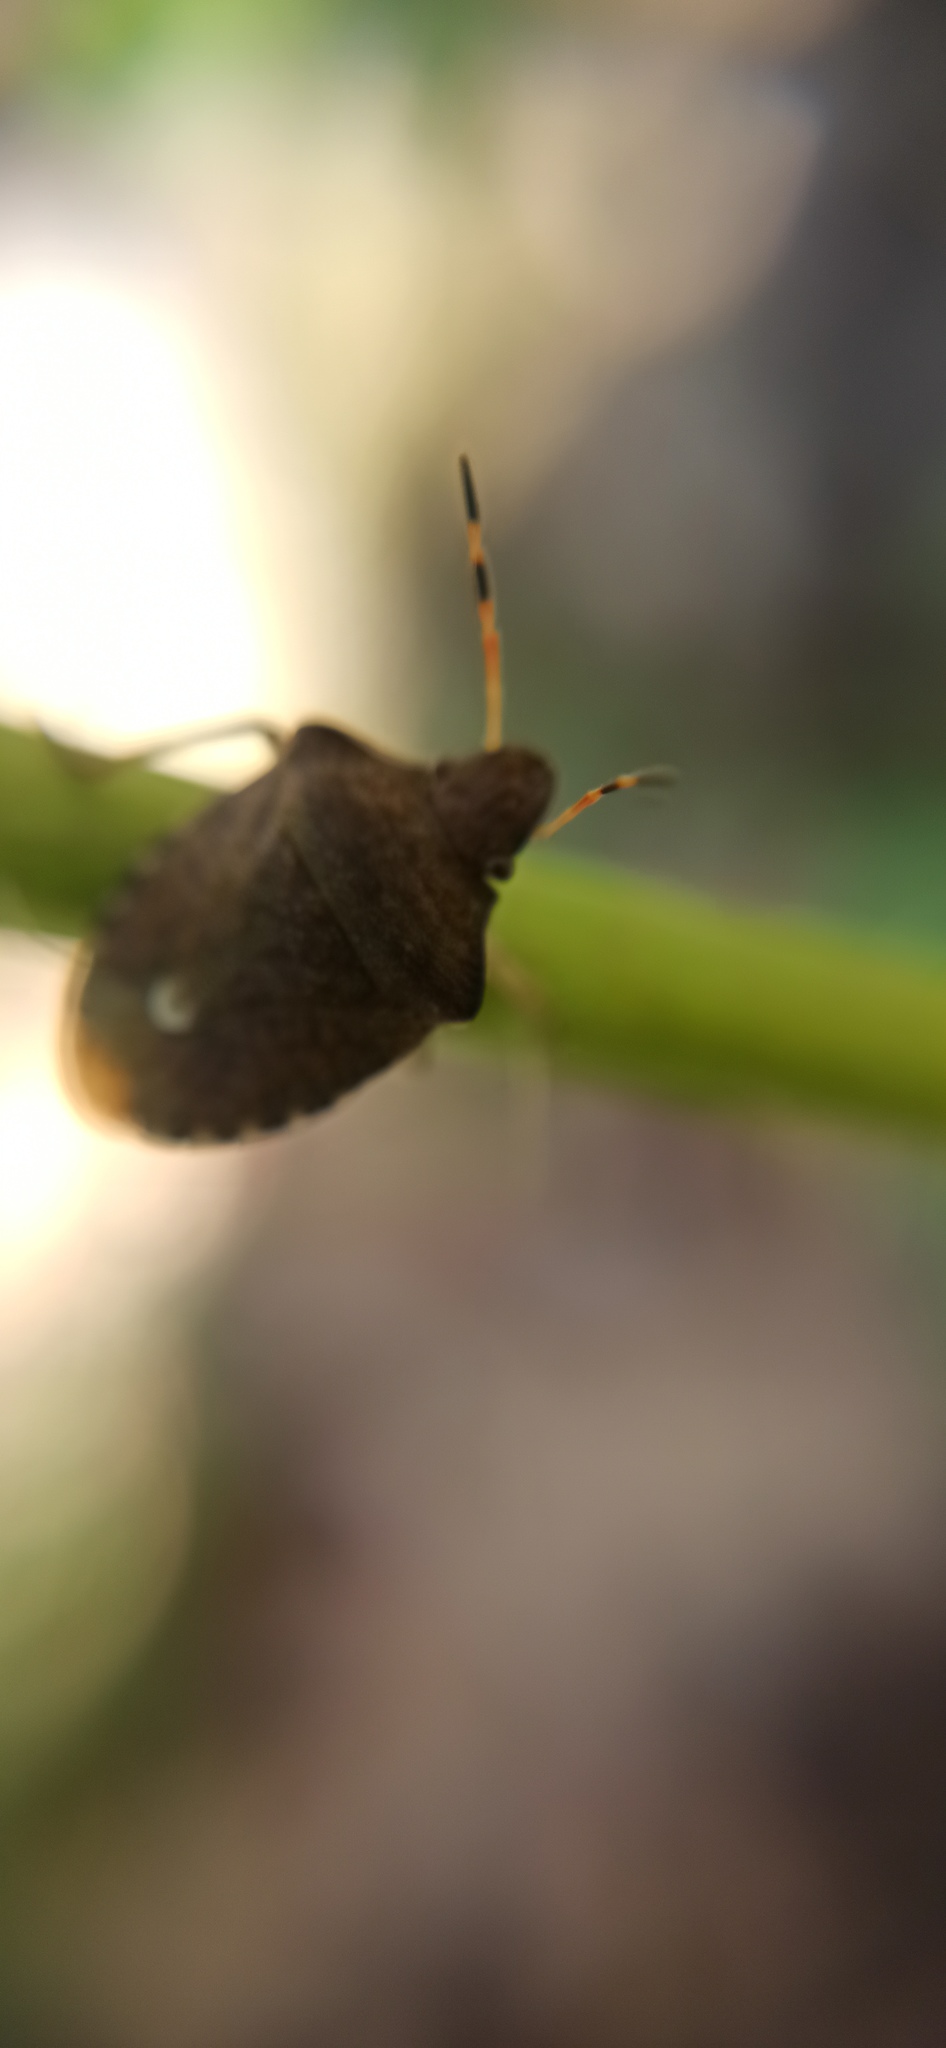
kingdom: Animalia
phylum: Arthropoda
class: Insecta
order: Hemiptera
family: Pentatomidae
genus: Holcostethus
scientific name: Holcostethus strictus
